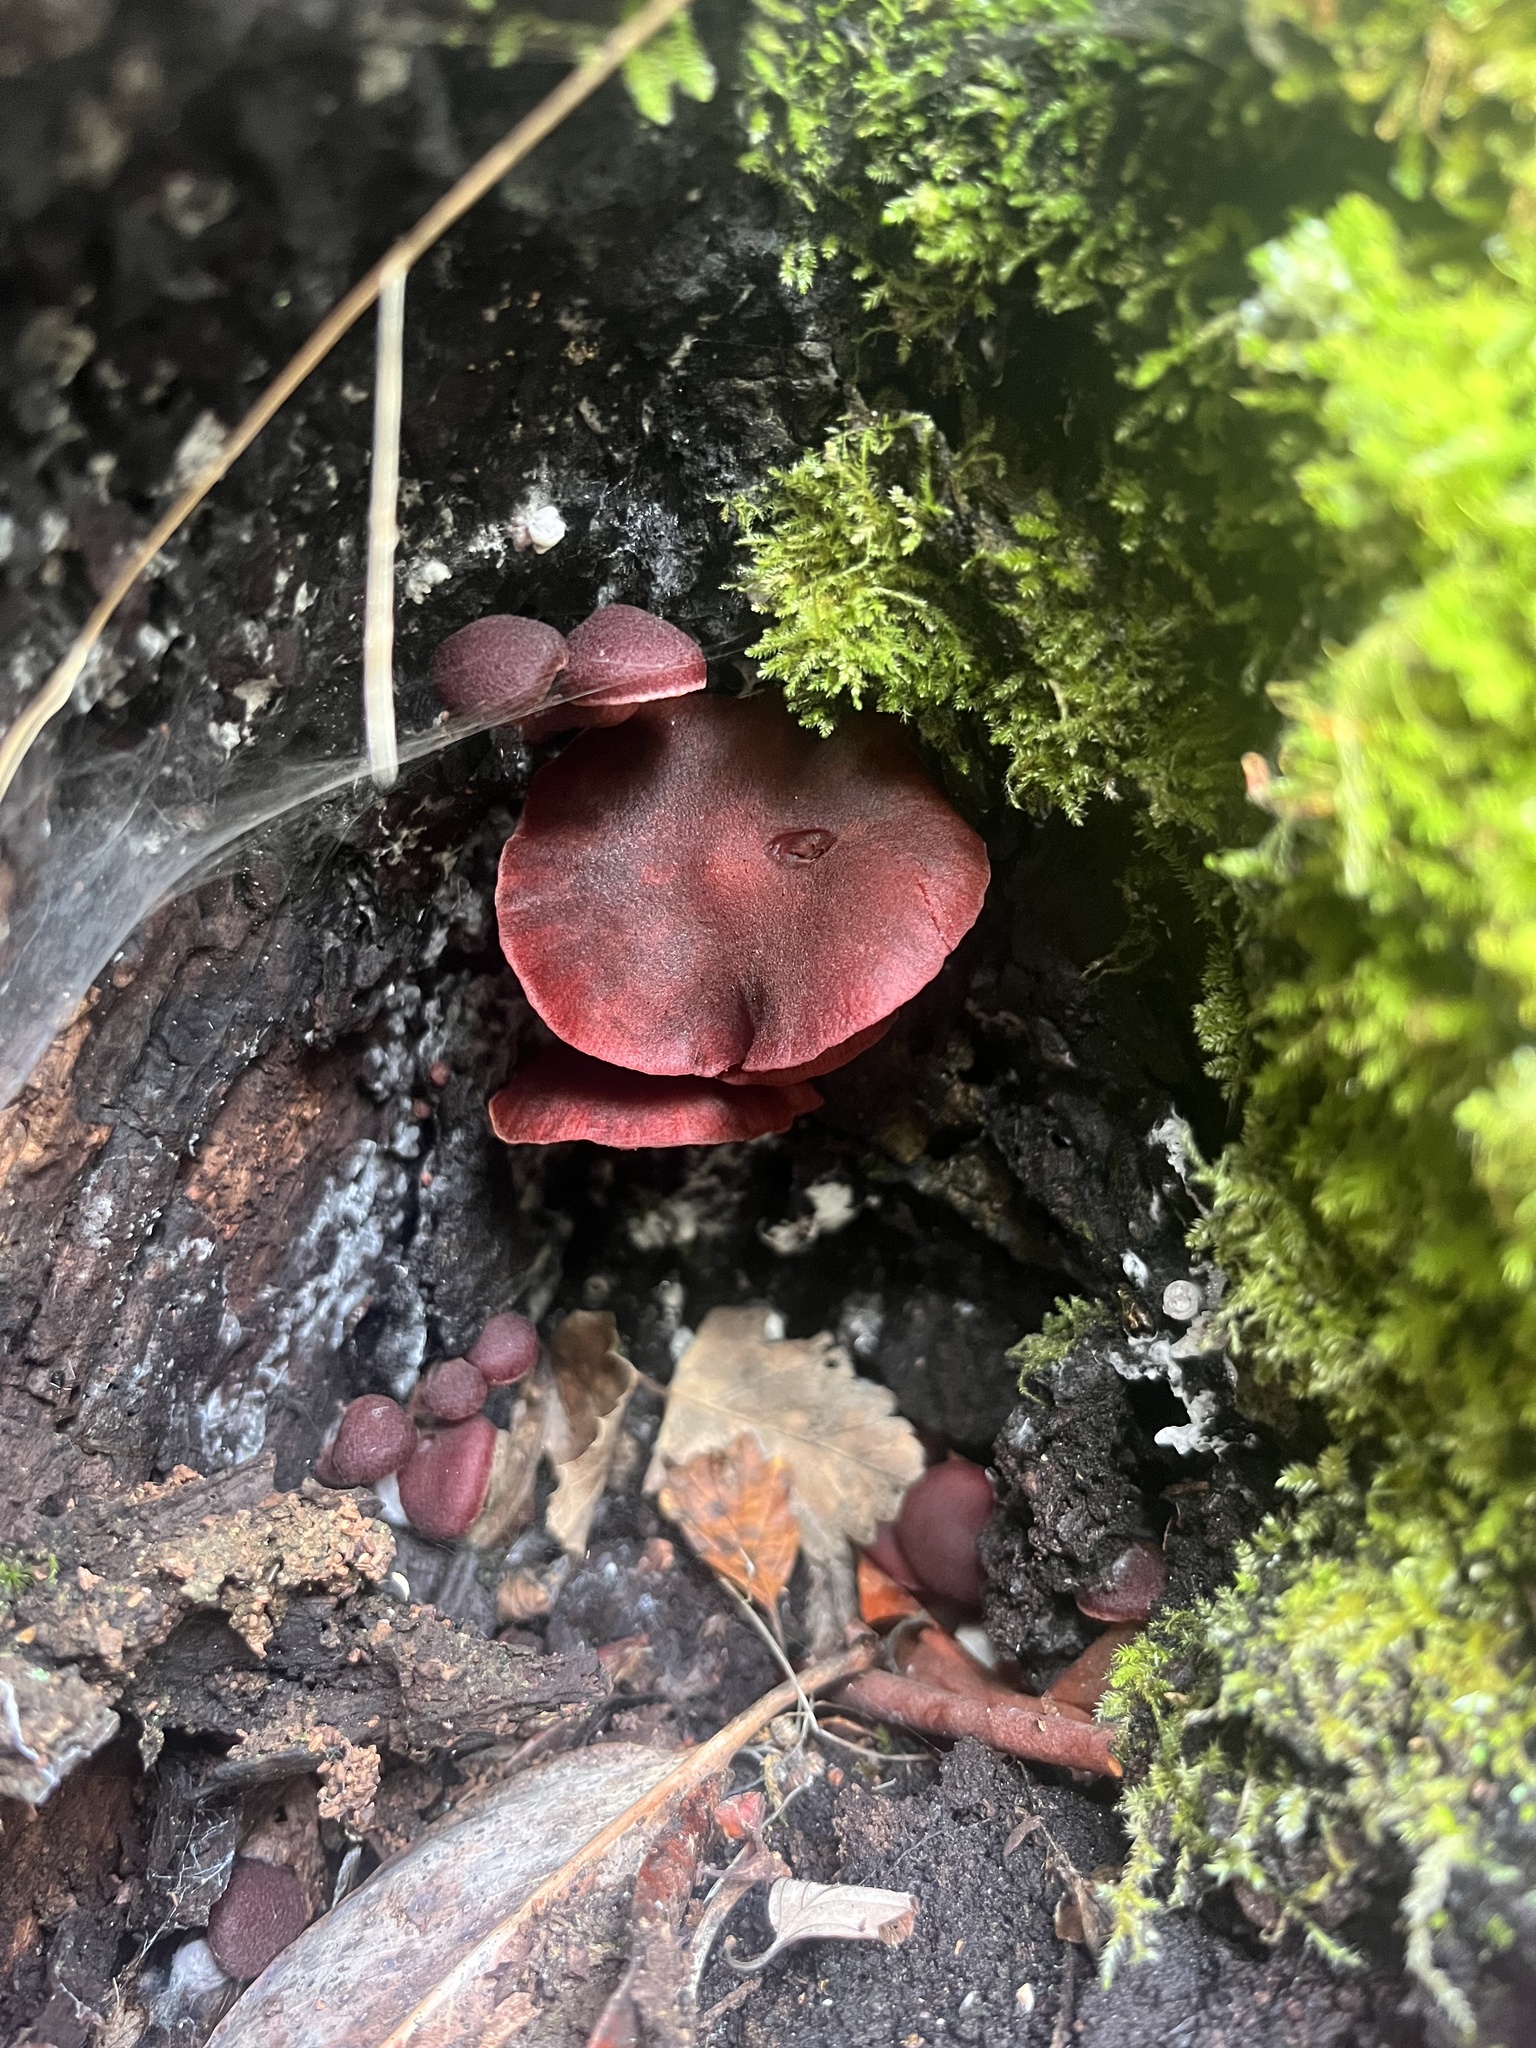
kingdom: Fungi
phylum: Basidiomycota
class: Agaricomycetes
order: Agaricales
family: Tubariaceae
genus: Tubaria
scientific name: Tubaria punicea
